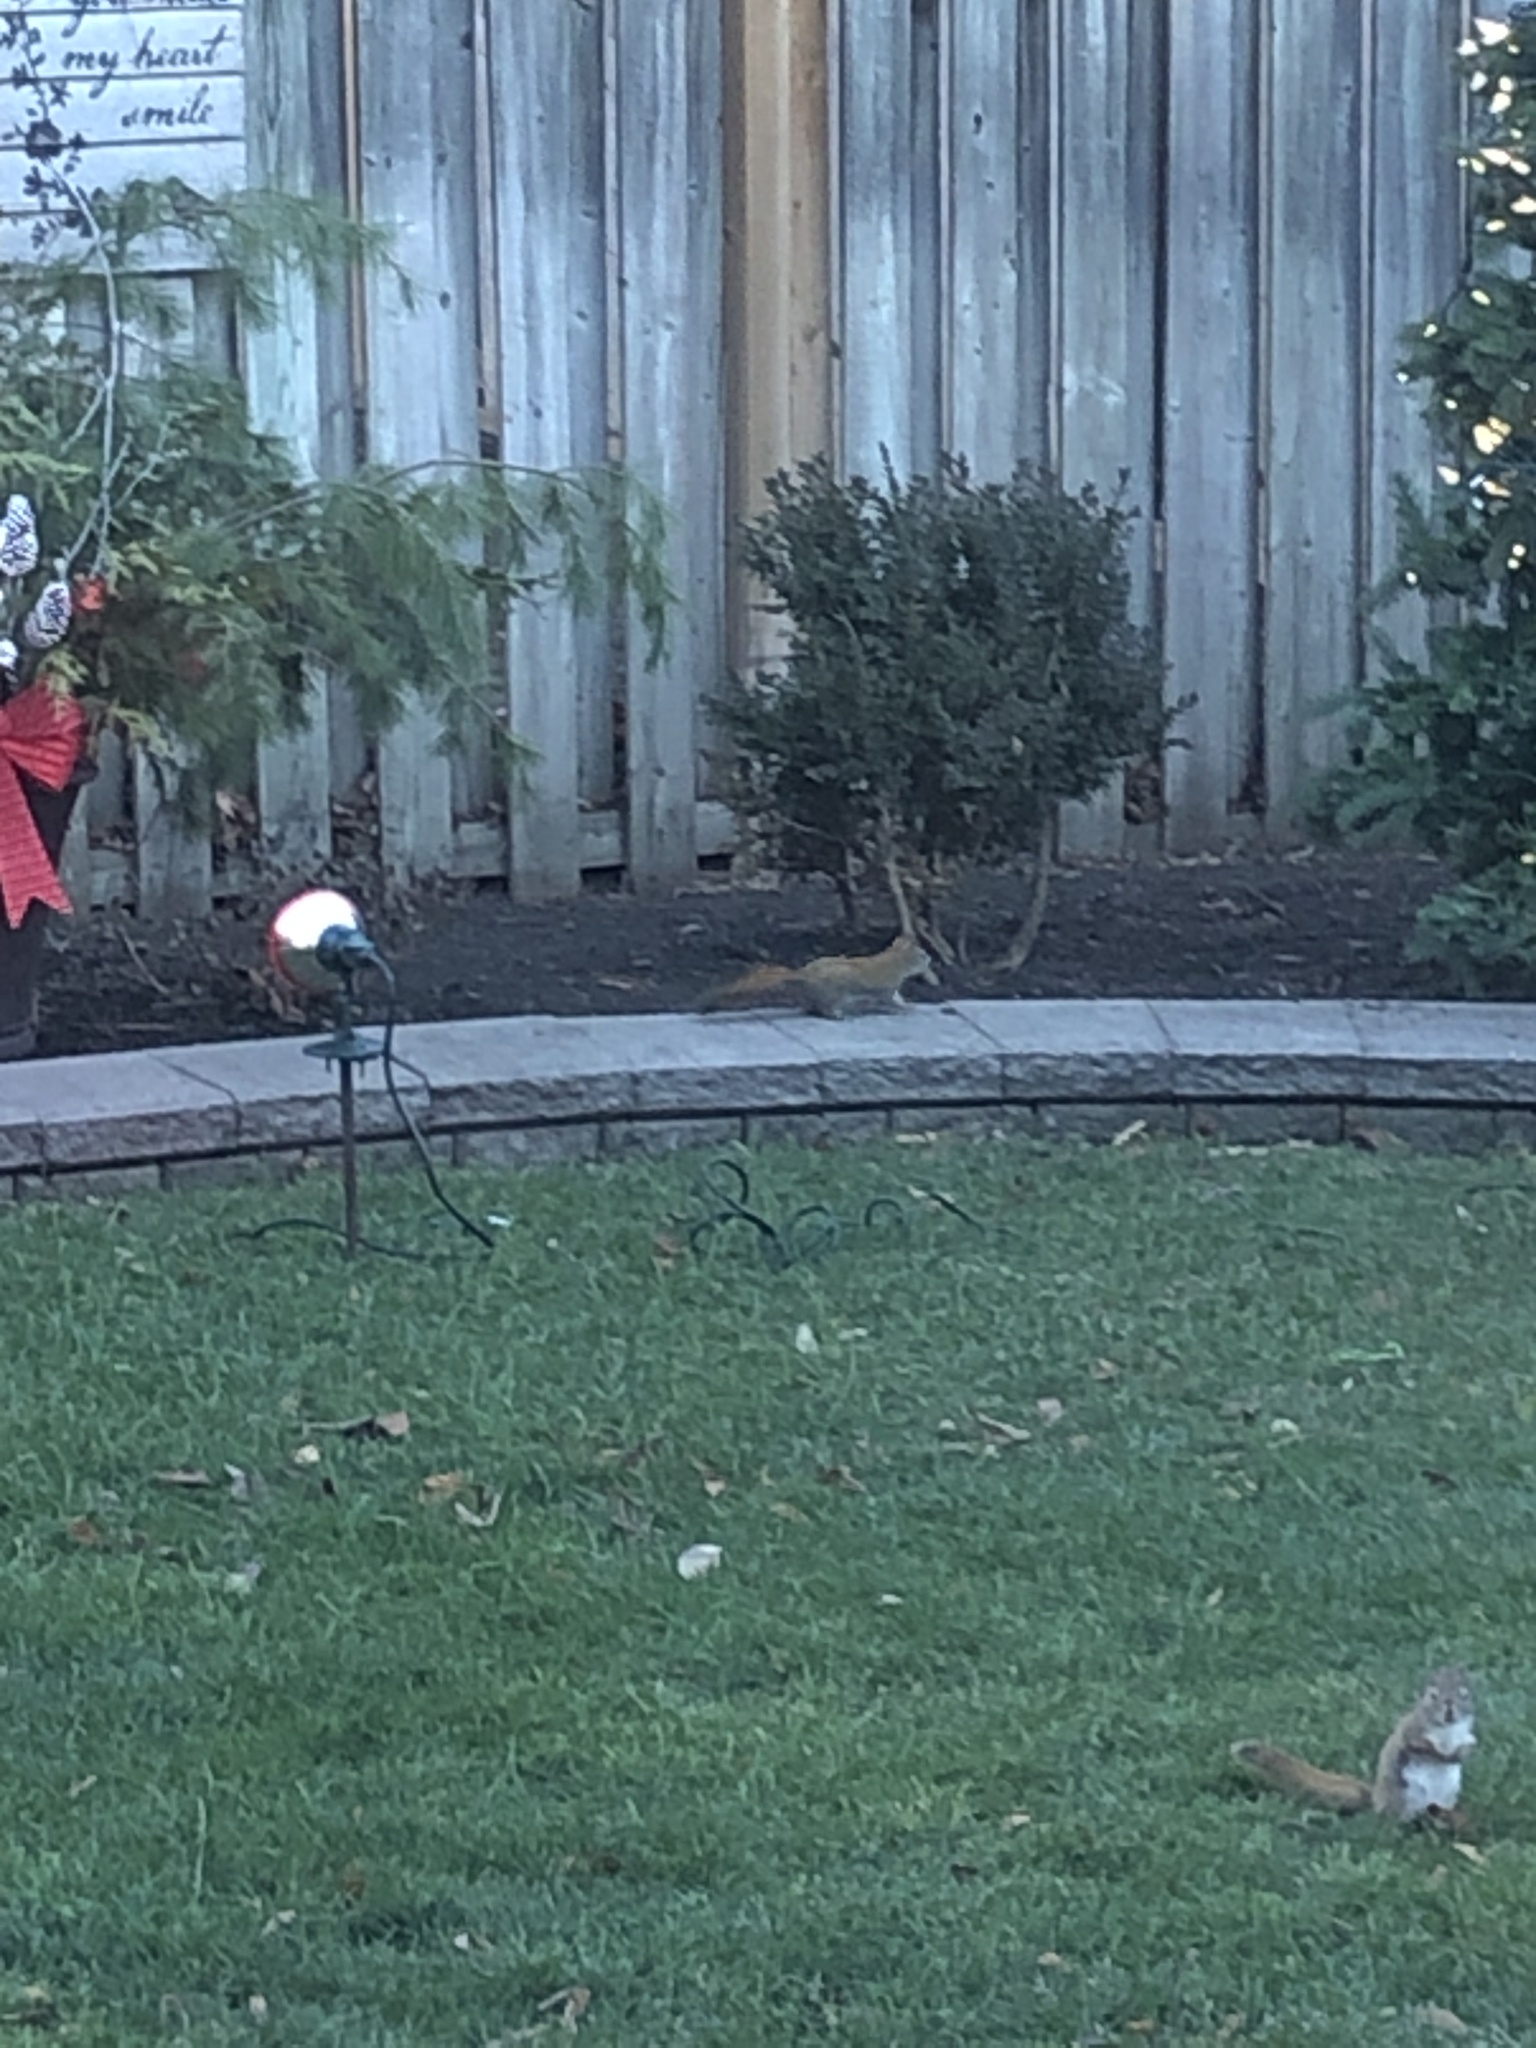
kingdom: Animalia
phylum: Chordata
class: Mammalia
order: Rodentia
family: Sciuridae
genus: Tamiasciurus
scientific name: Tamiasciurus hudsonicus
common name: Red squirrel
